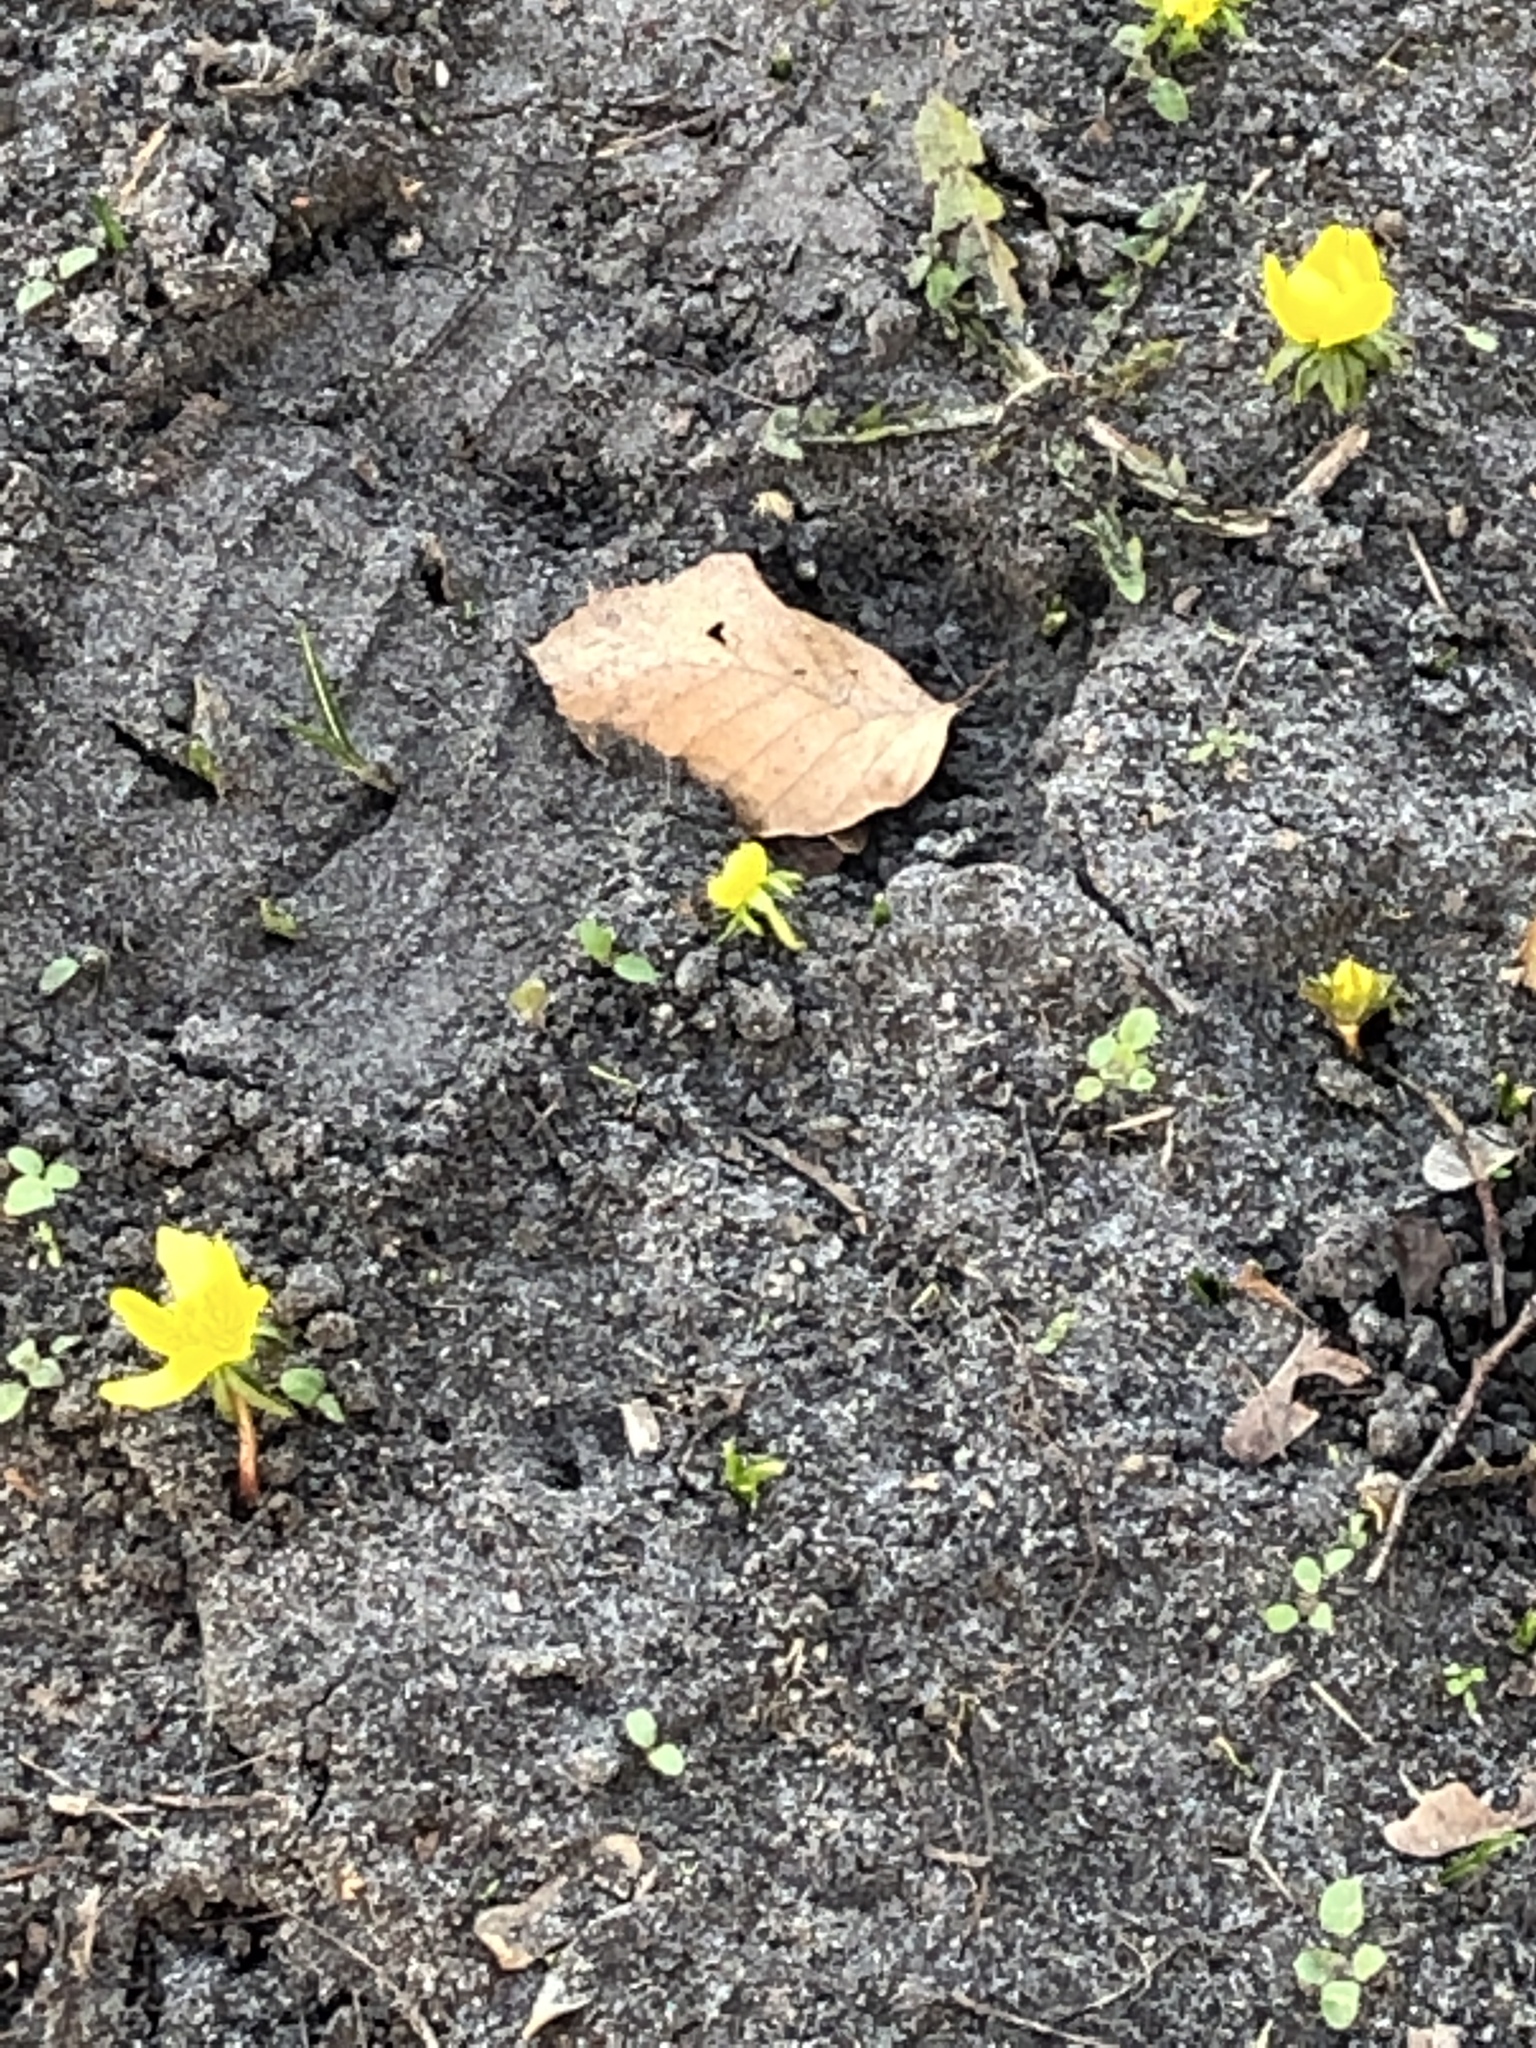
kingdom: Plantae
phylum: Tracheophyta
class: Magnoliopsida
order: Ranunculales
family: Ranunculaceae
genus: Eranthis
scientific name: Eranthis hyemalis
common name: Winter aconite
